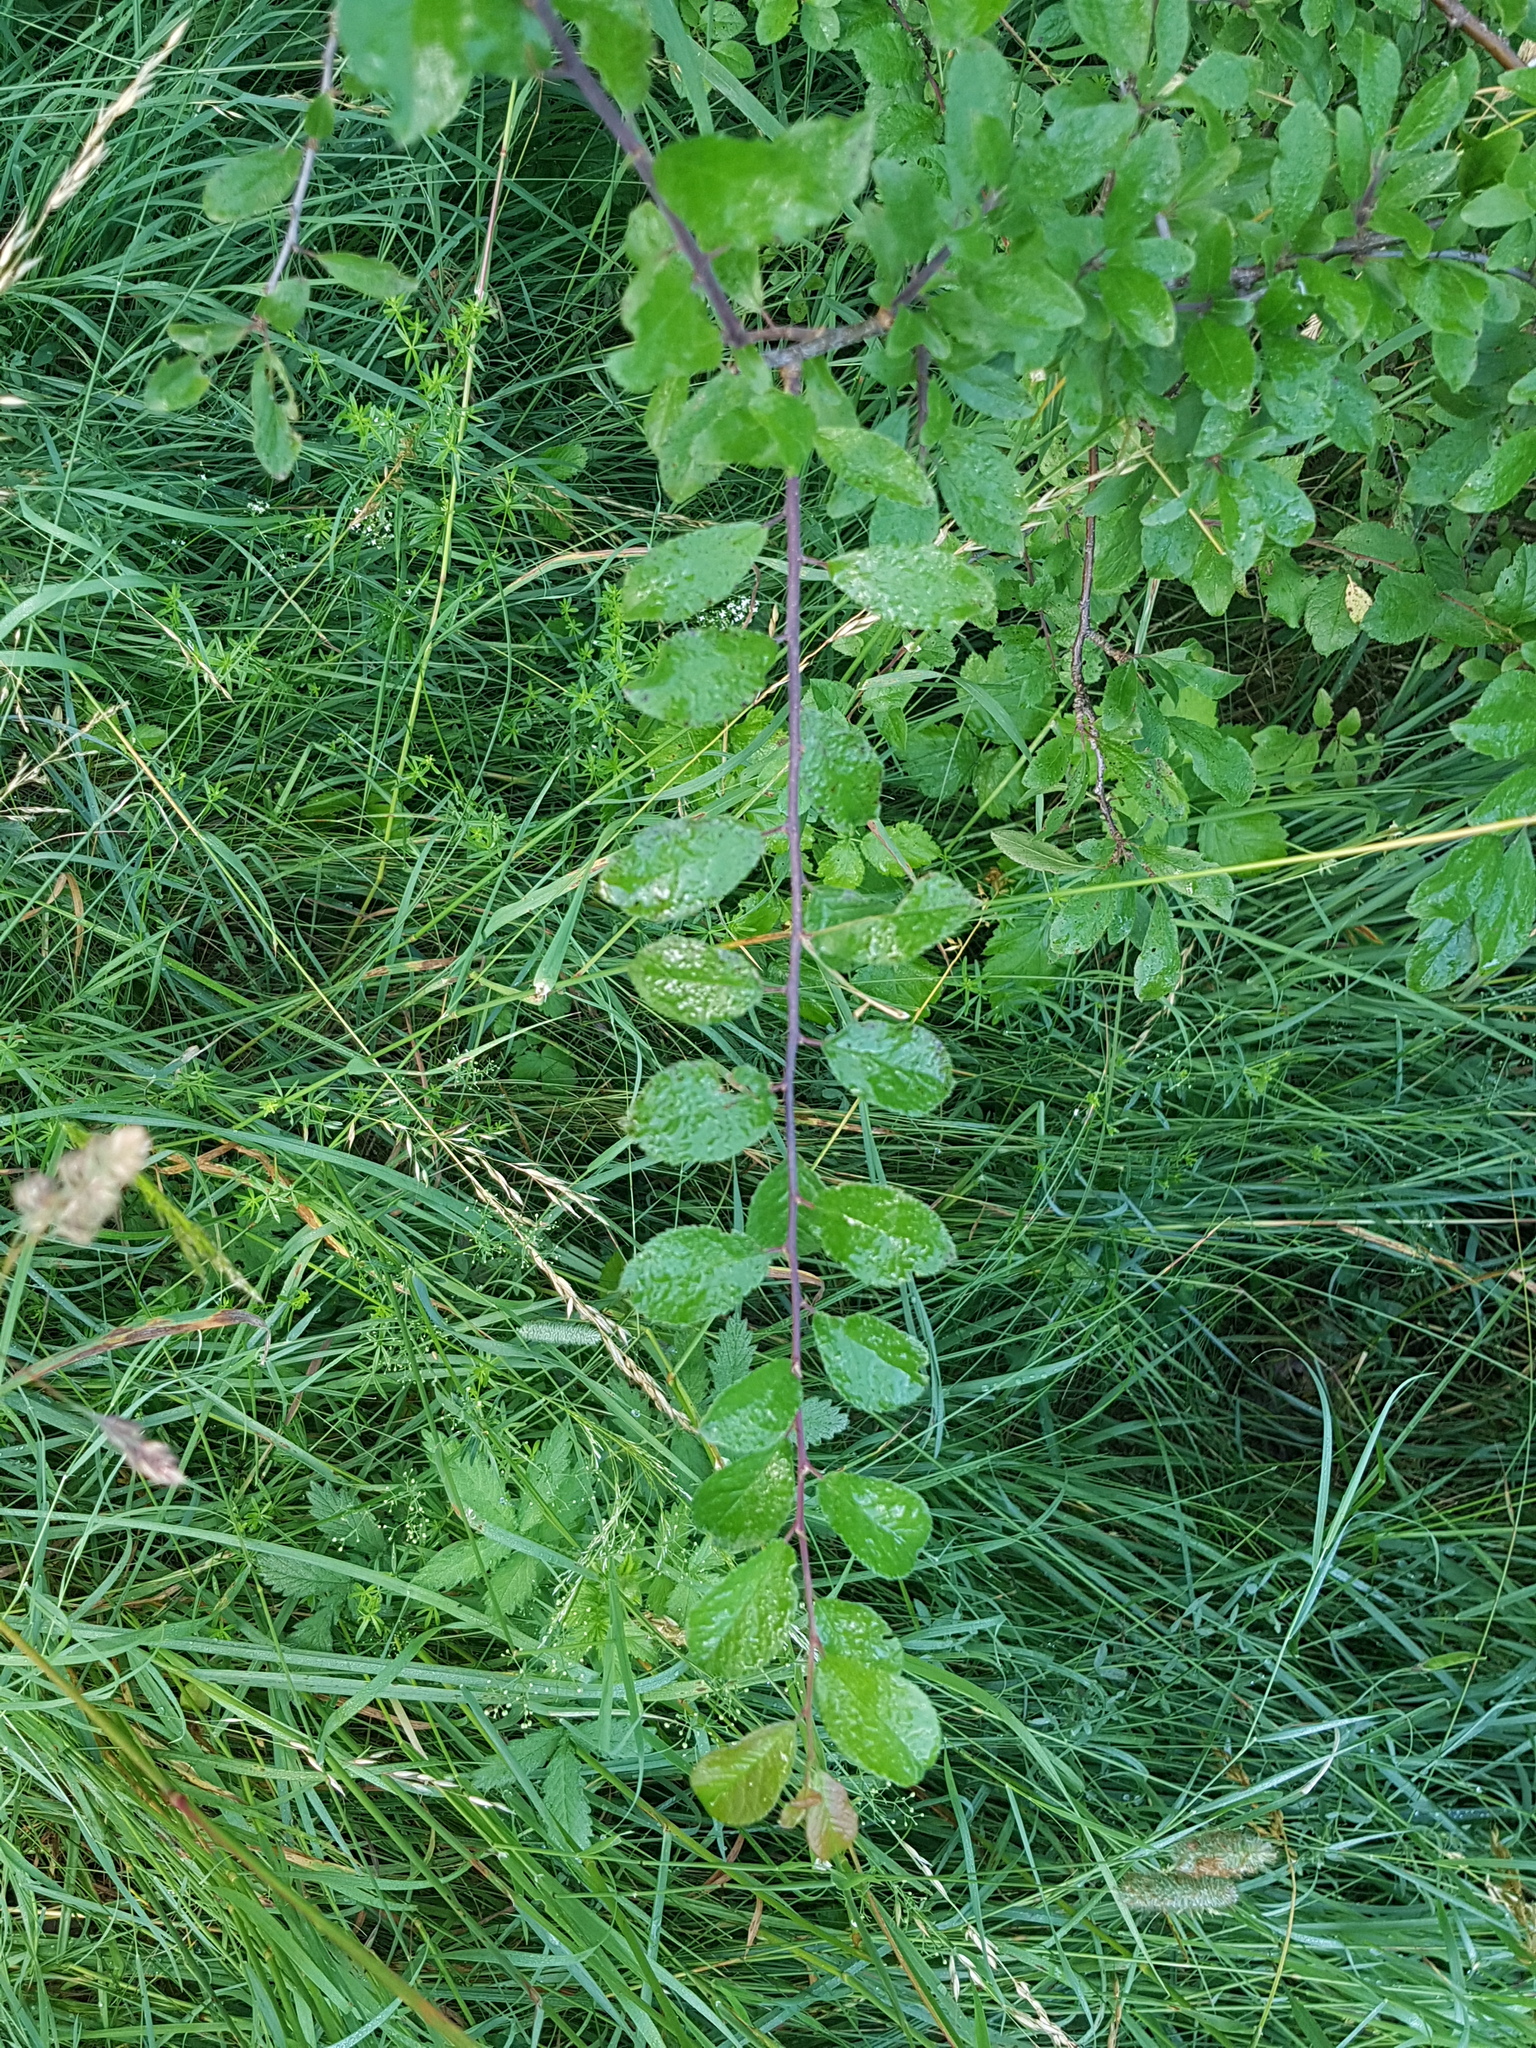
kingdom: Plantae
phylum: Tracheophyta
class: Magnoliopsida
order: Rosales
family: Rosaceae
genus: Prunus
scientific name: Prunus spinosa
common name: Blackthorn
